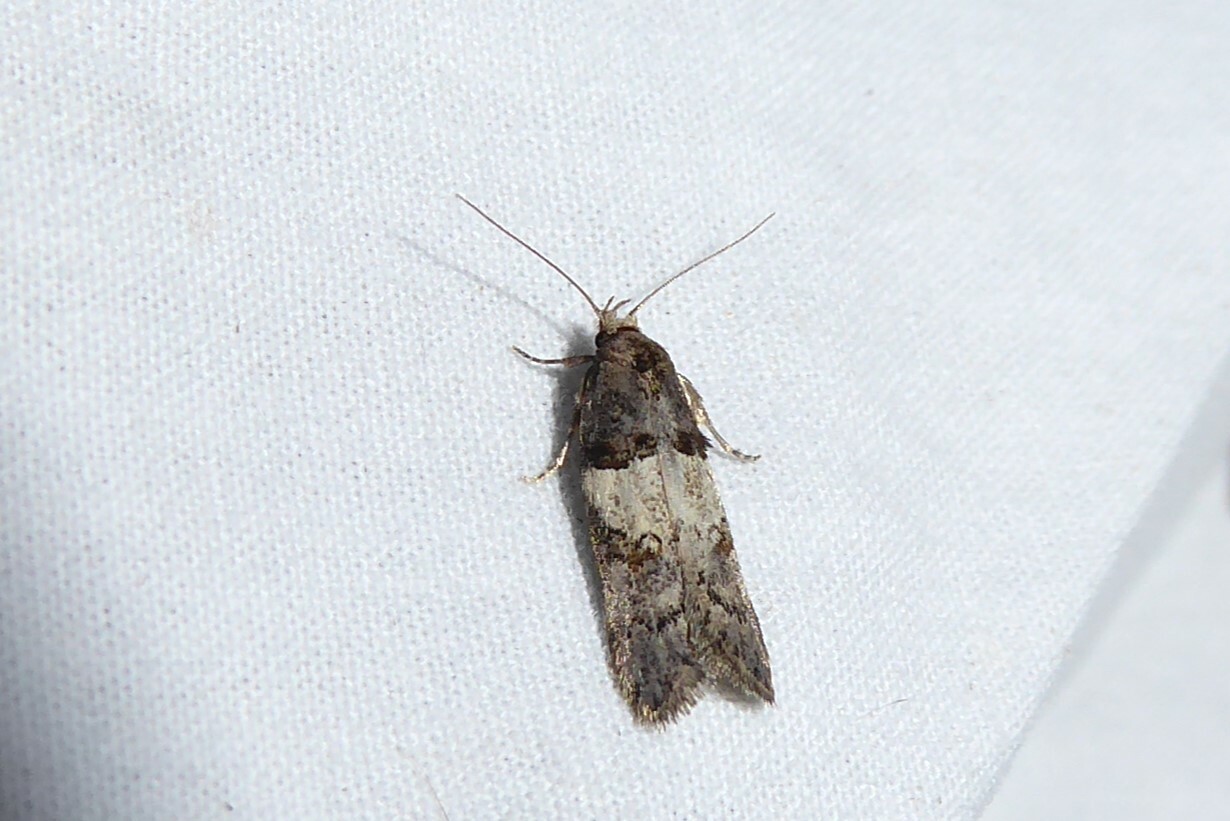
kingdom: Animalia
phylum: Arthropoda
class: Insecta
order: Lepidoptera
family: Oecophoridae
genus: Trachypepla
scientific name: Trachypepla contritella
